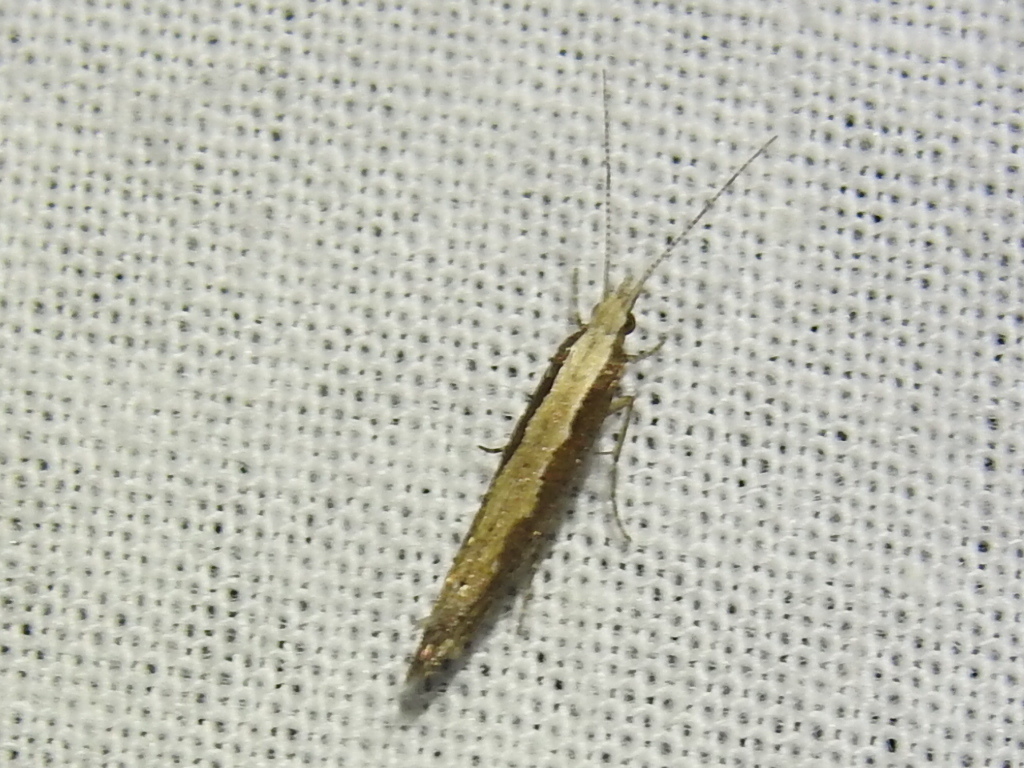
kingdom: Animalia
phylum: Arthropoda
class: Insecta
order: Lepidoptera
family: Plutellidae
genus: Plutella
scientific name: Plutella xylostella
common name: Diamond-back moth
